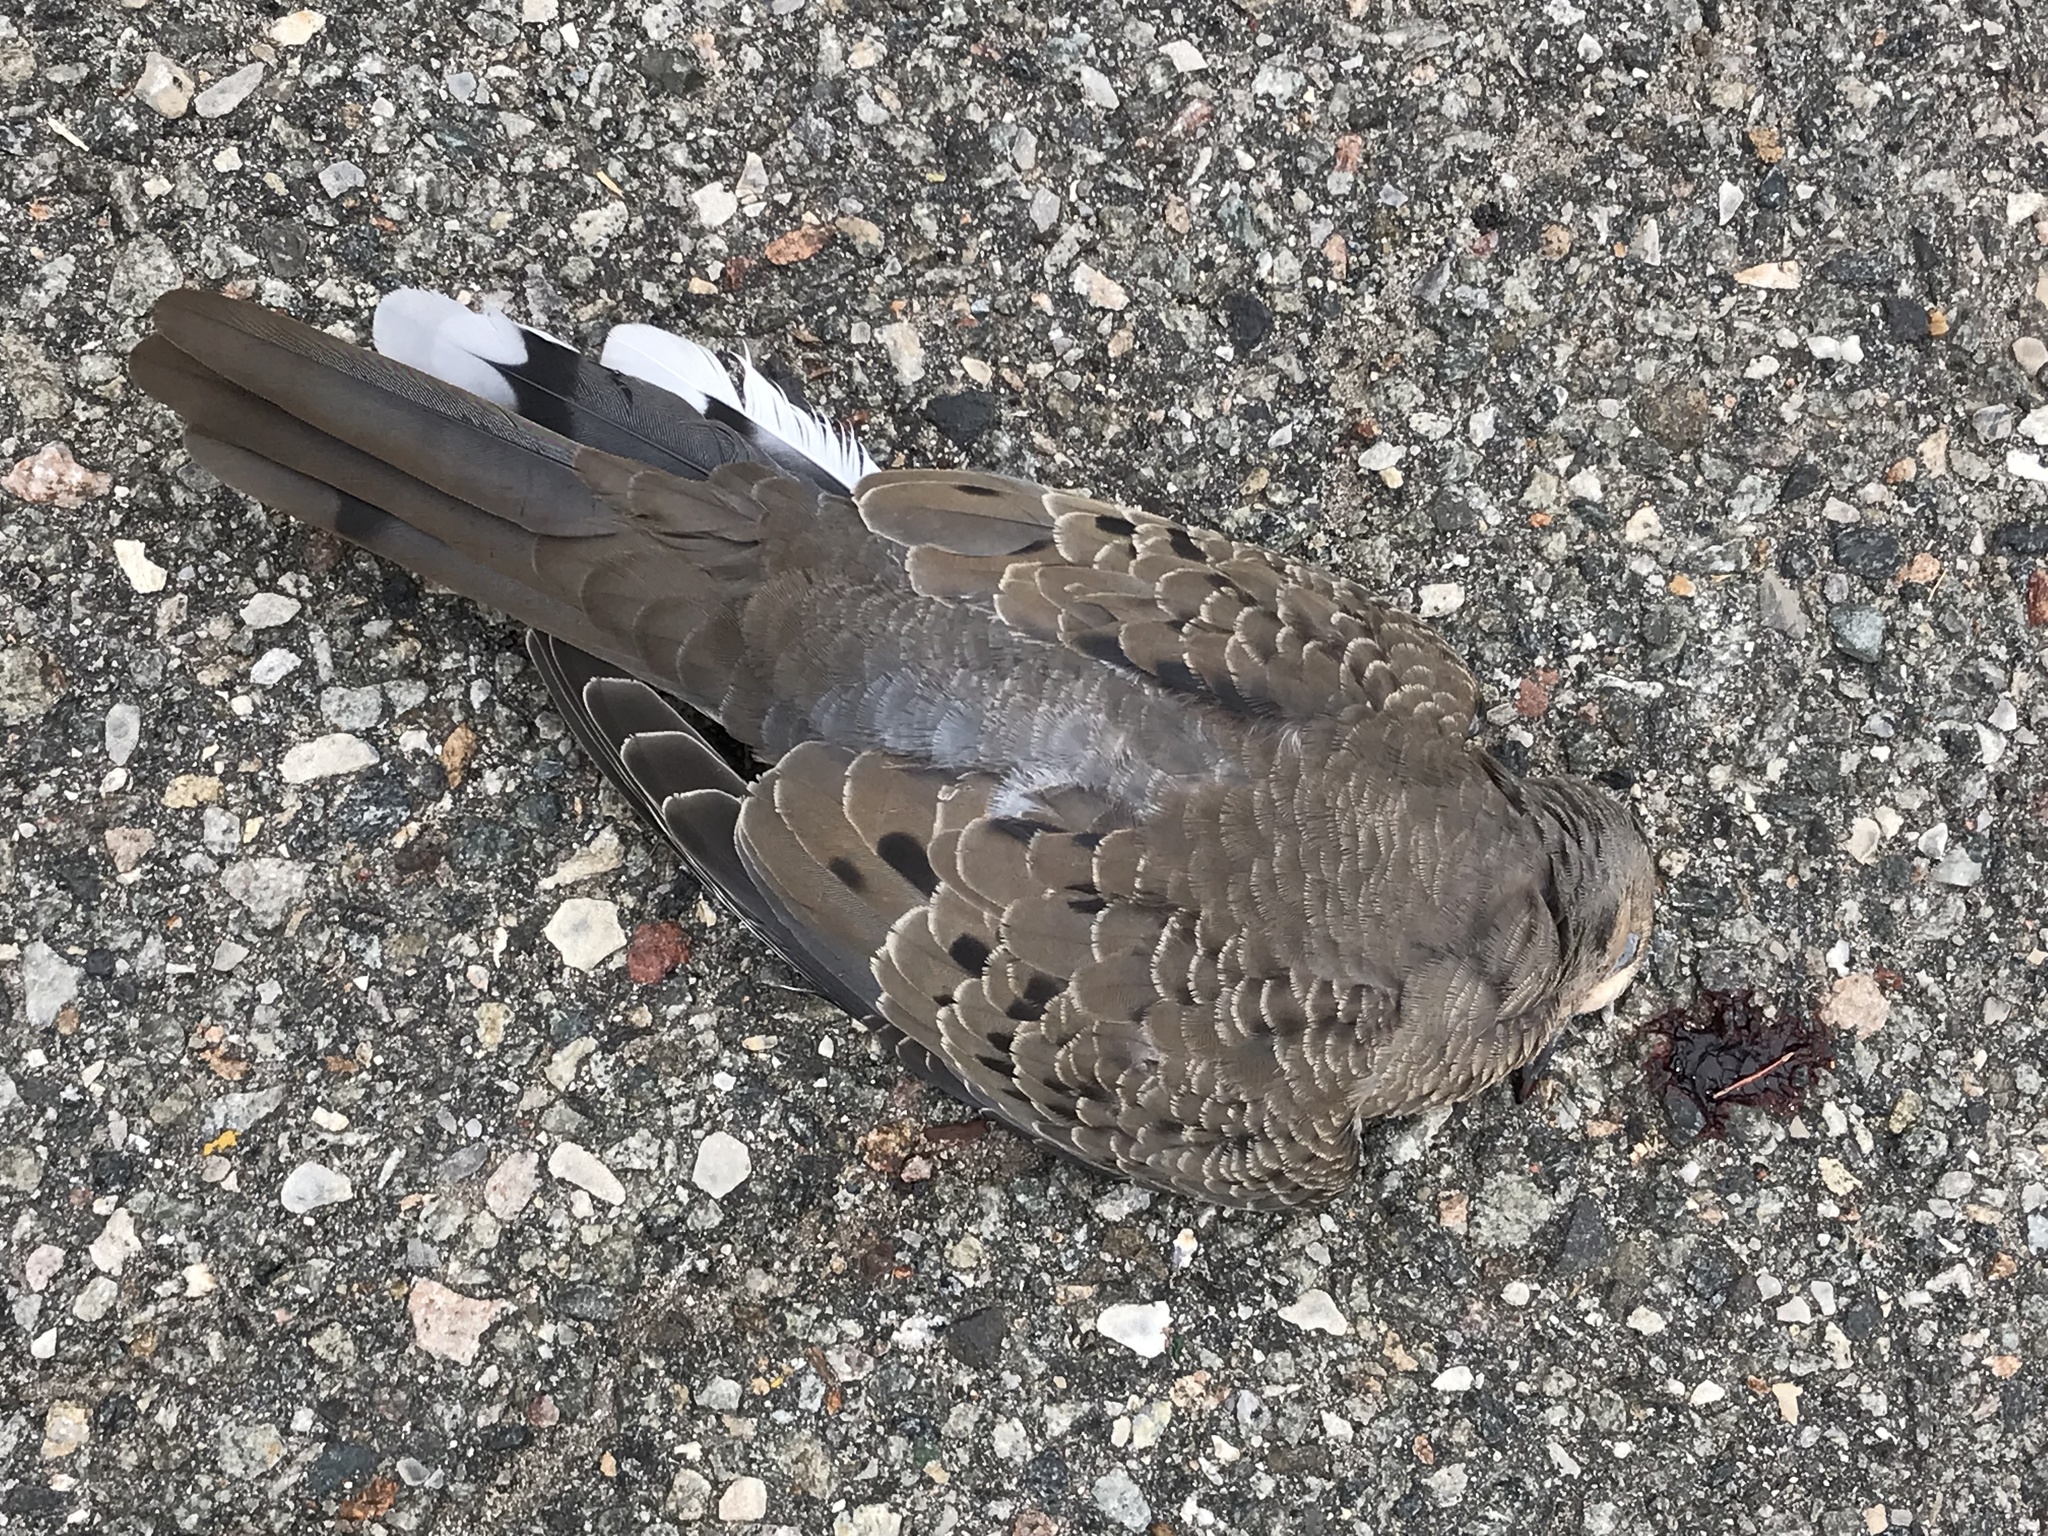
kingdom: Animalia
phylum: Chordata
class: Aves
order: Columbiformes
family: Columbidae
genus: Zenaida
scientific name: Zenaida macroura
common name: Mourning dove
